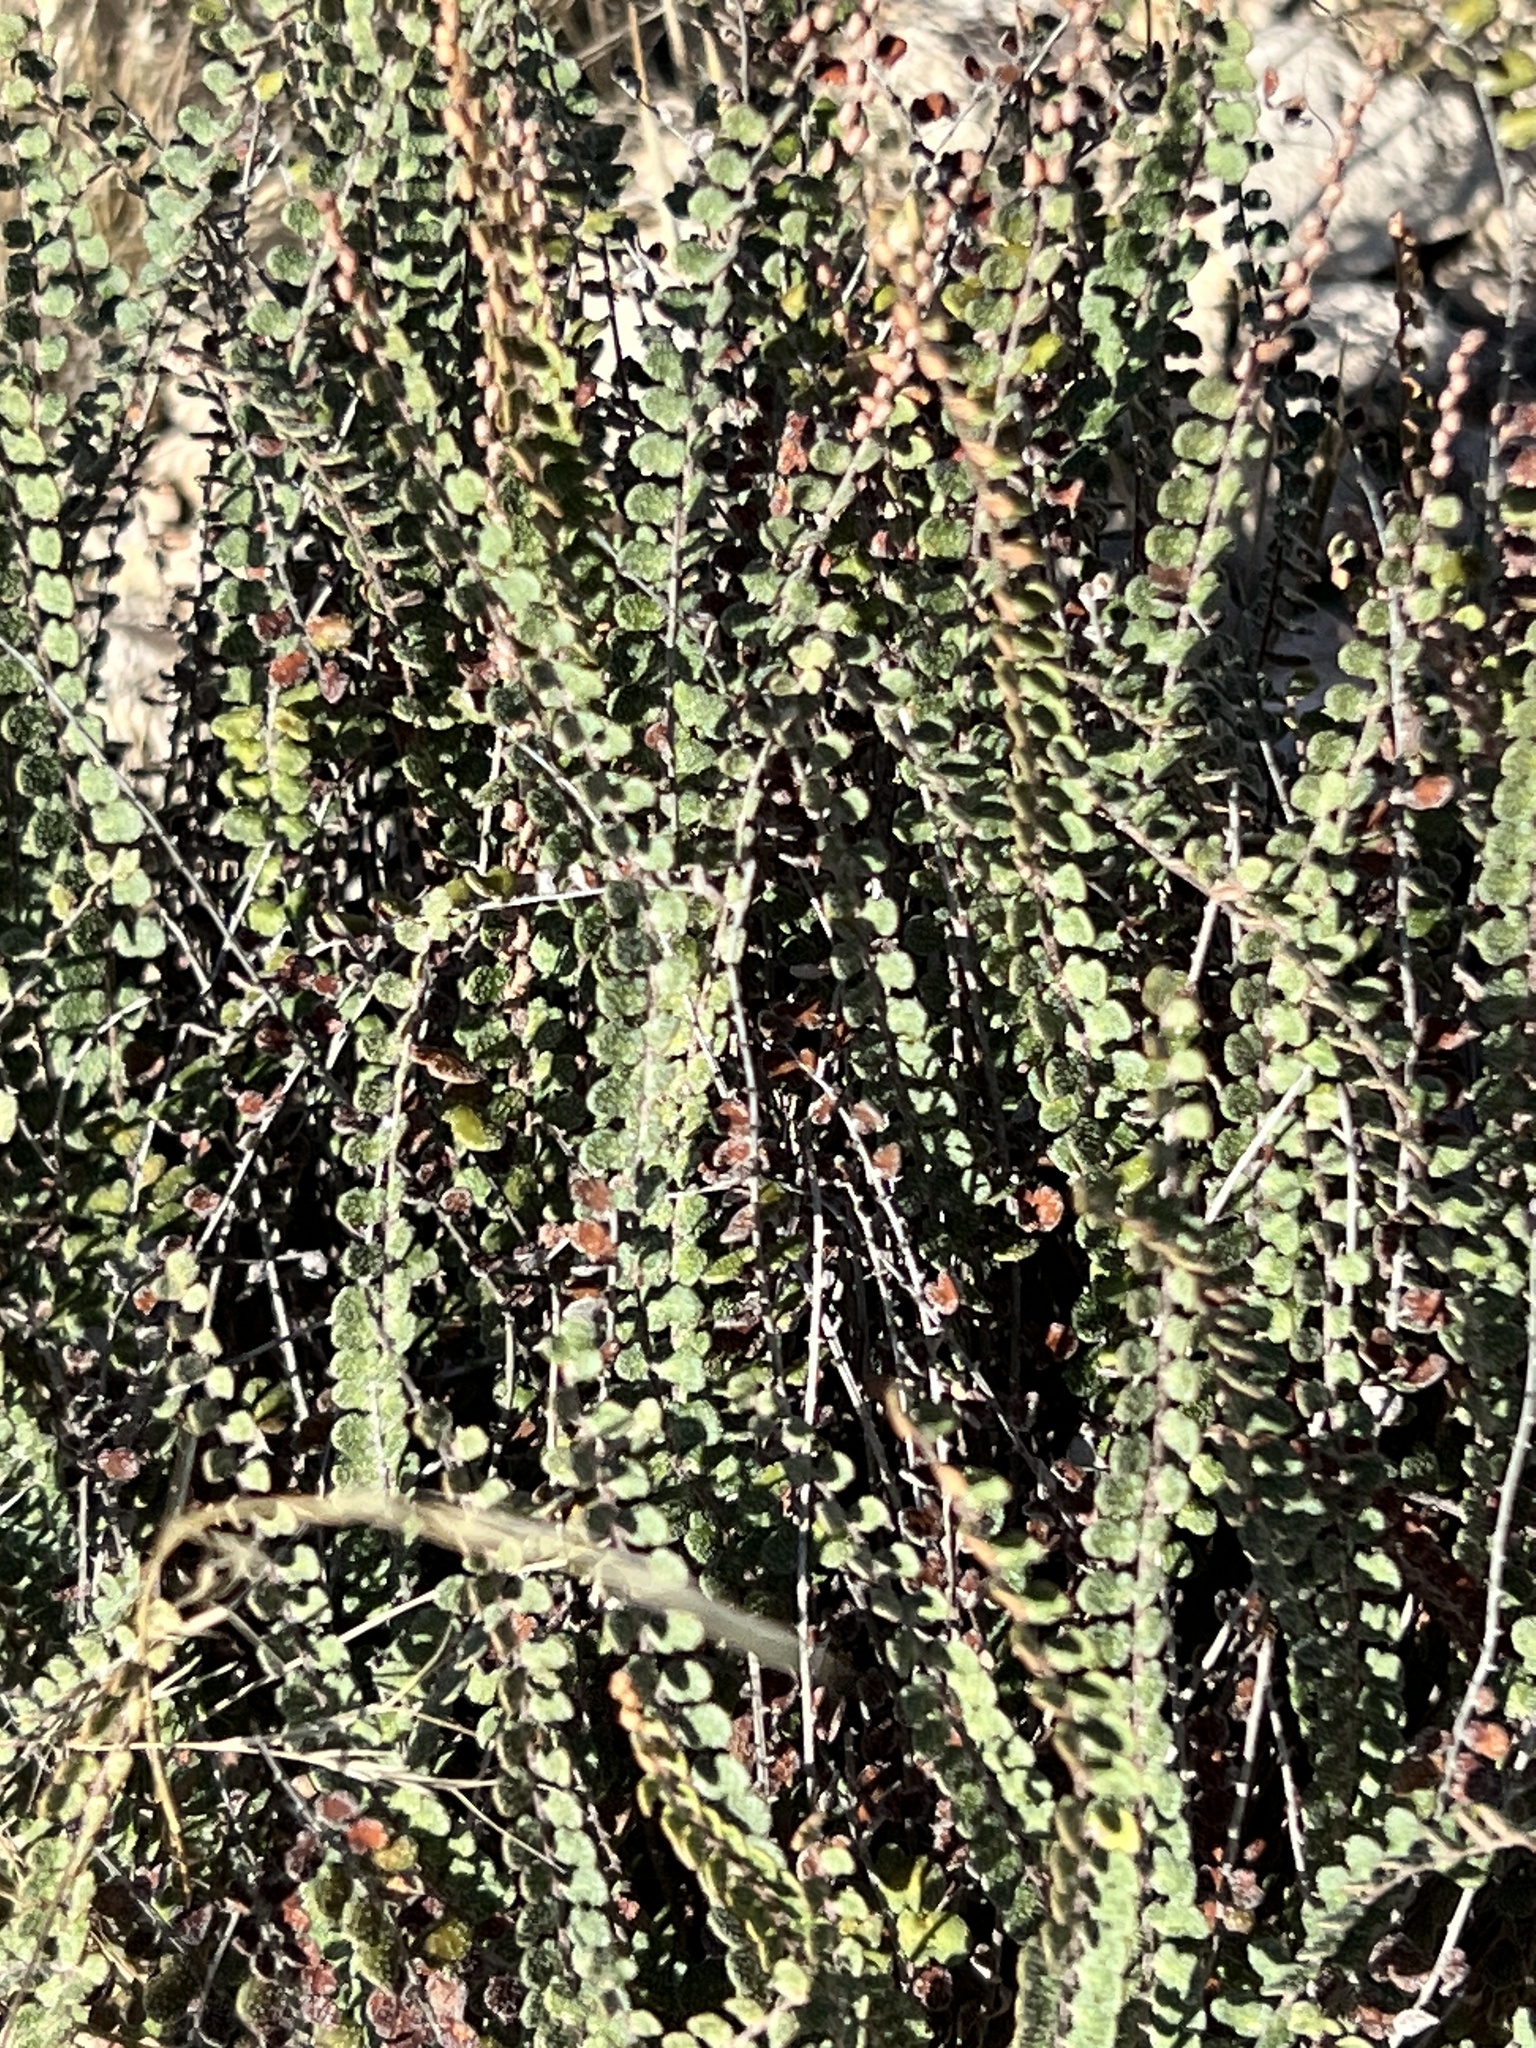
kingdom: Plantae
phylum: Tracheophyta
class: Polypodiopsida
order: Polypodiales
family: Pteridaceae
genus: Astrolepis
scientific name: Astrolepis cochisensis
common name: Scaly cloak fern
